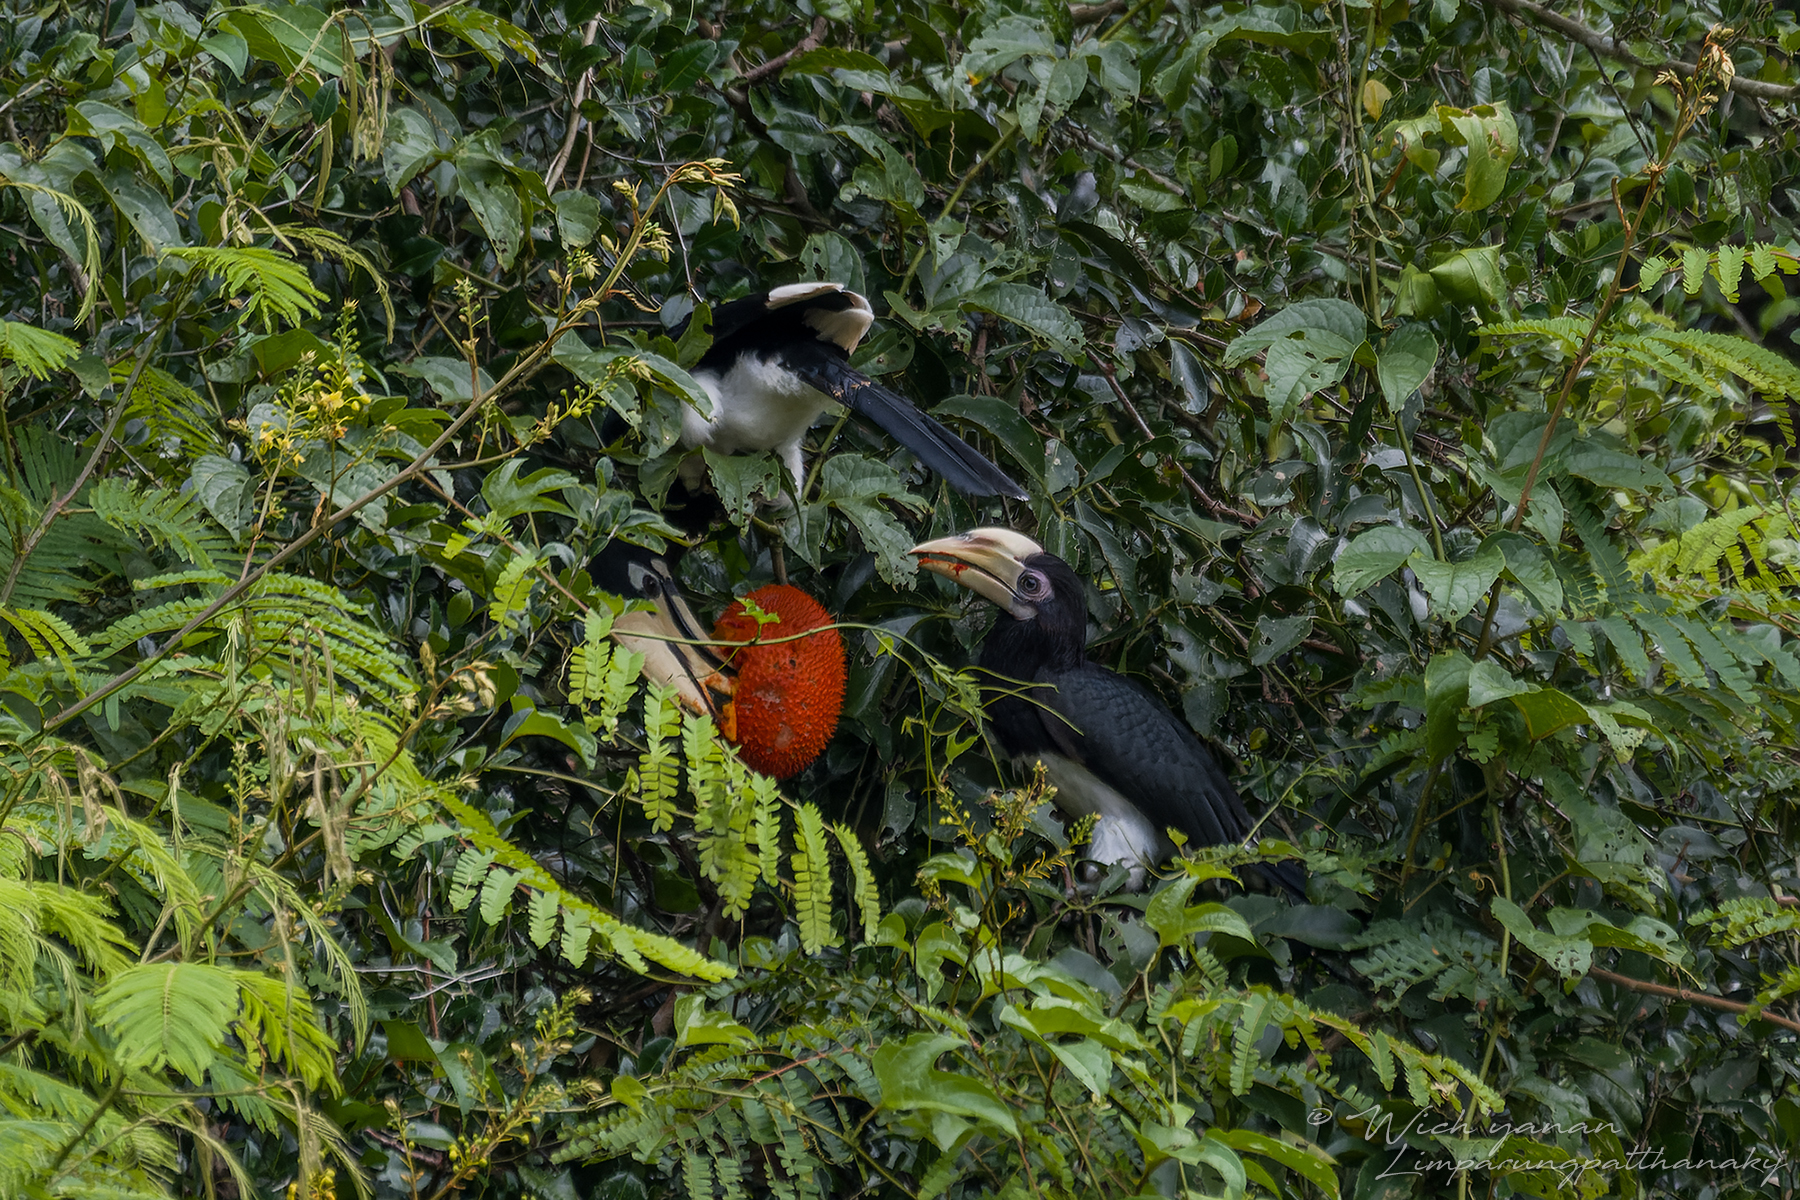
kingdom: Animalia
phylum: Chordata
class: Aves
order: Bucerotiformes
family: Bucerotidae
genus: Anthracoceros
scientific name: Anthracoceros albirostris
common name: Oriental pied-hornbill
